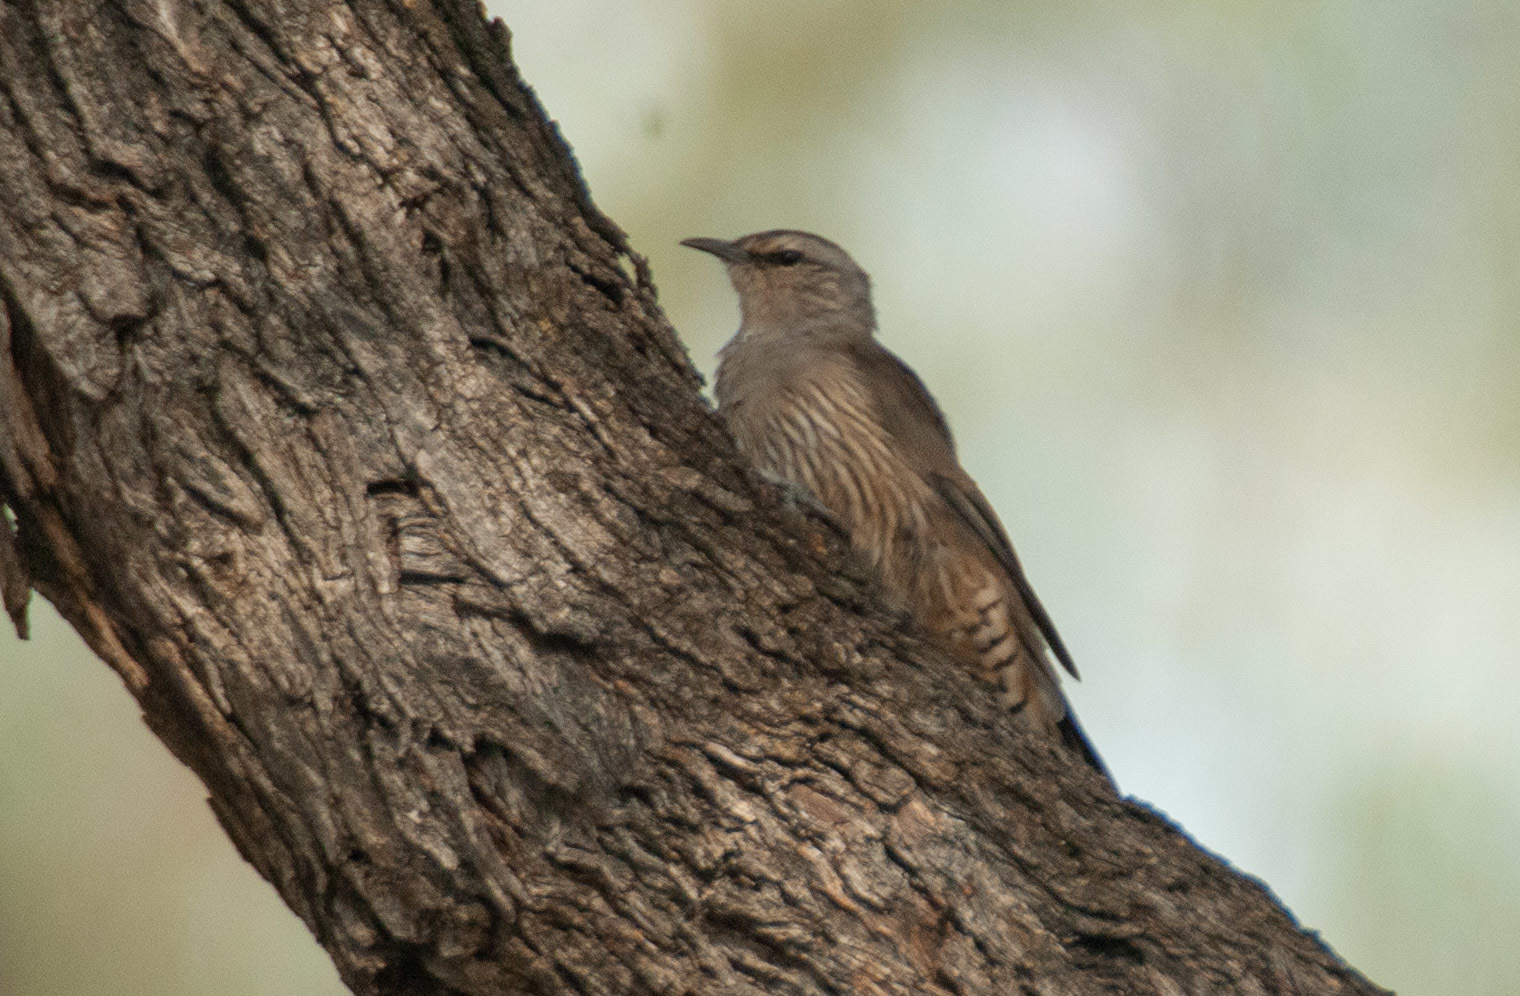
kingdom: Animalia
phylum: Chordata
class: Aves
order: Passeriformes
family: Climacteridae
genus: Climacteris
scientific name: Climacteris picumnus
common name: Brown treecreeper
